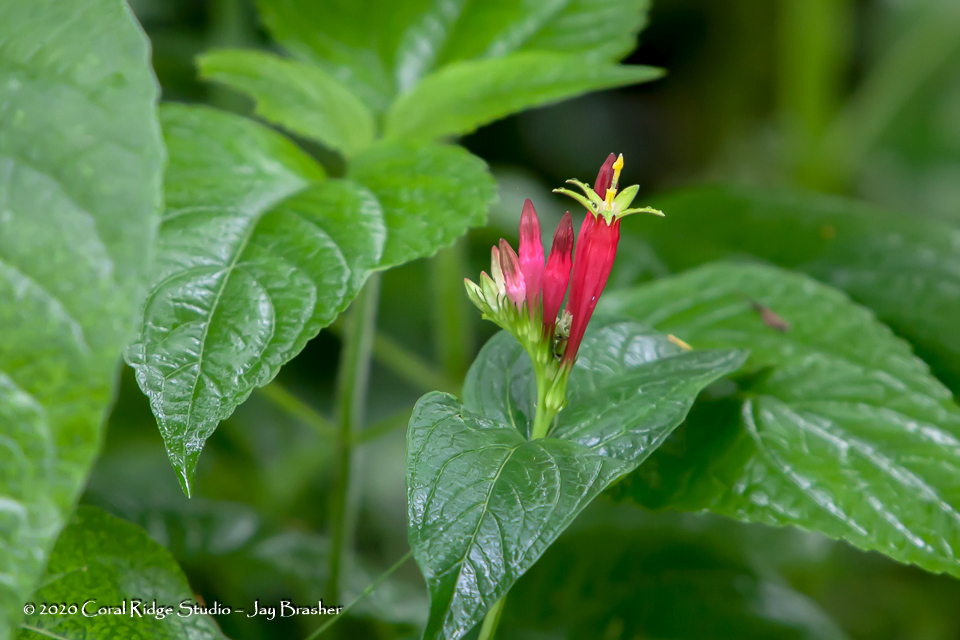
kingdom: Plantae
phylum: Tracheophyta
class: Magnoliopsida
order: Gentianales
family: Loganiaceae
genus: Spigelia
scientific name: Spigelia marilandica
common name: Indian-pink
